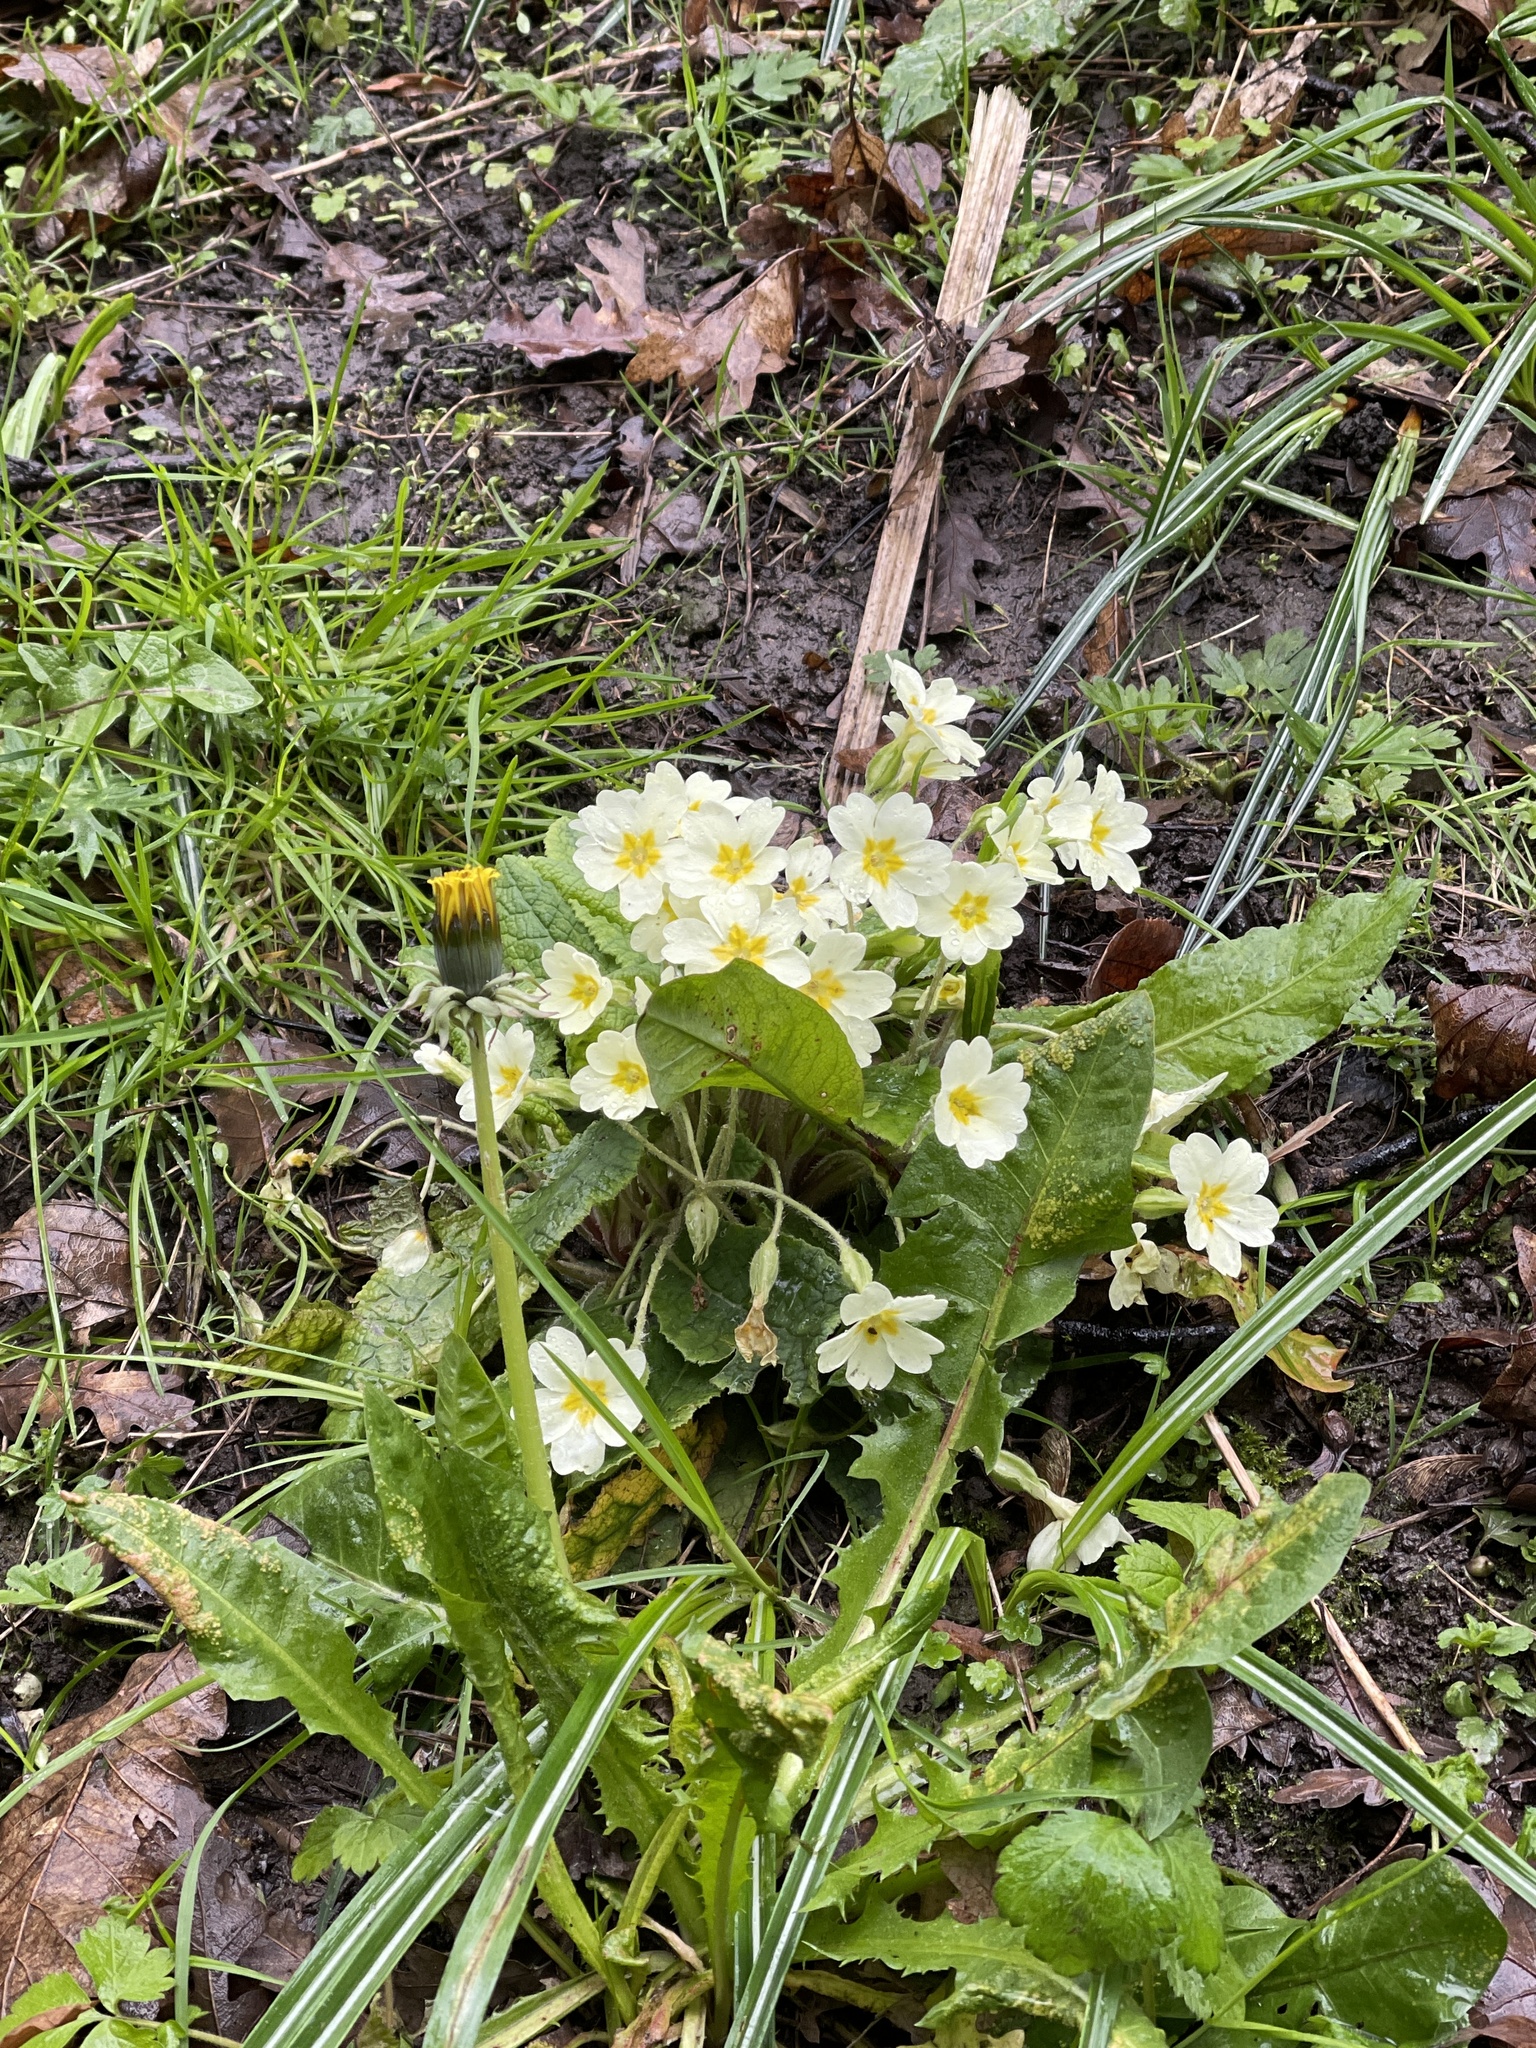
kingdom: Plantae
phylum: Tracheophyta
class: Magnoliopsida
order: Ericales
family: Primulaceae
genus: Primula
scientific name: Primula vulgaris
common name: Primrose
